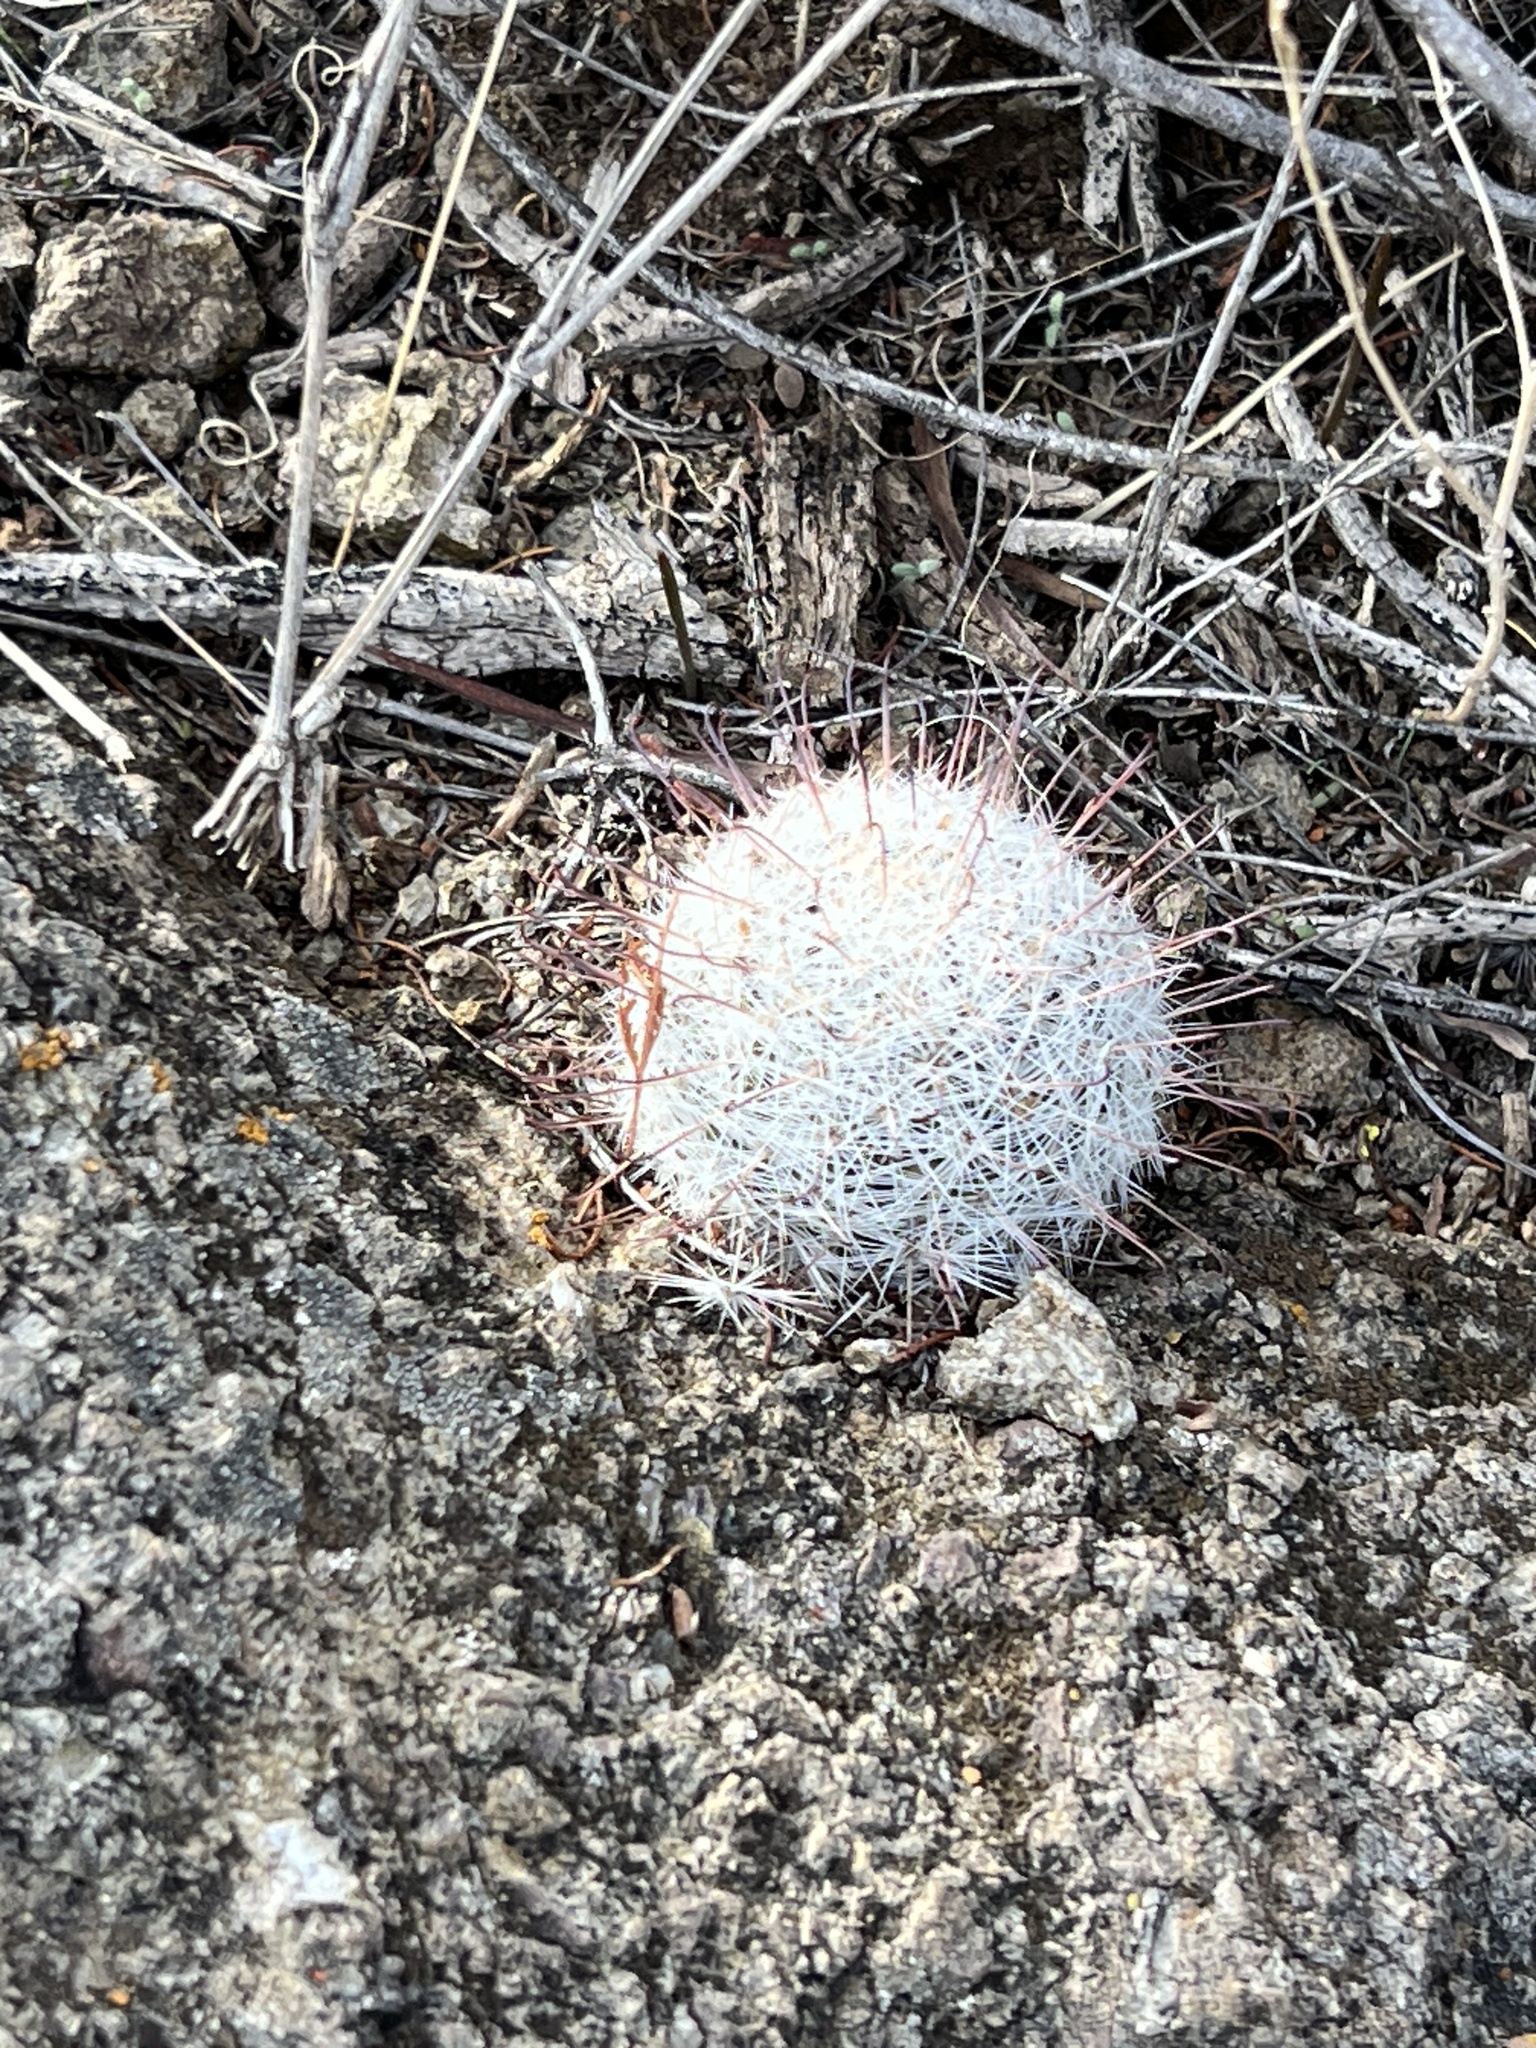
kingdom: Plantae
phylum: Tracheophyta
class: Magnoliopsida
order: Caryophyllales
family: Cactaceae
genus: Cochemiea
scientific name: Cochemiea grahamii
